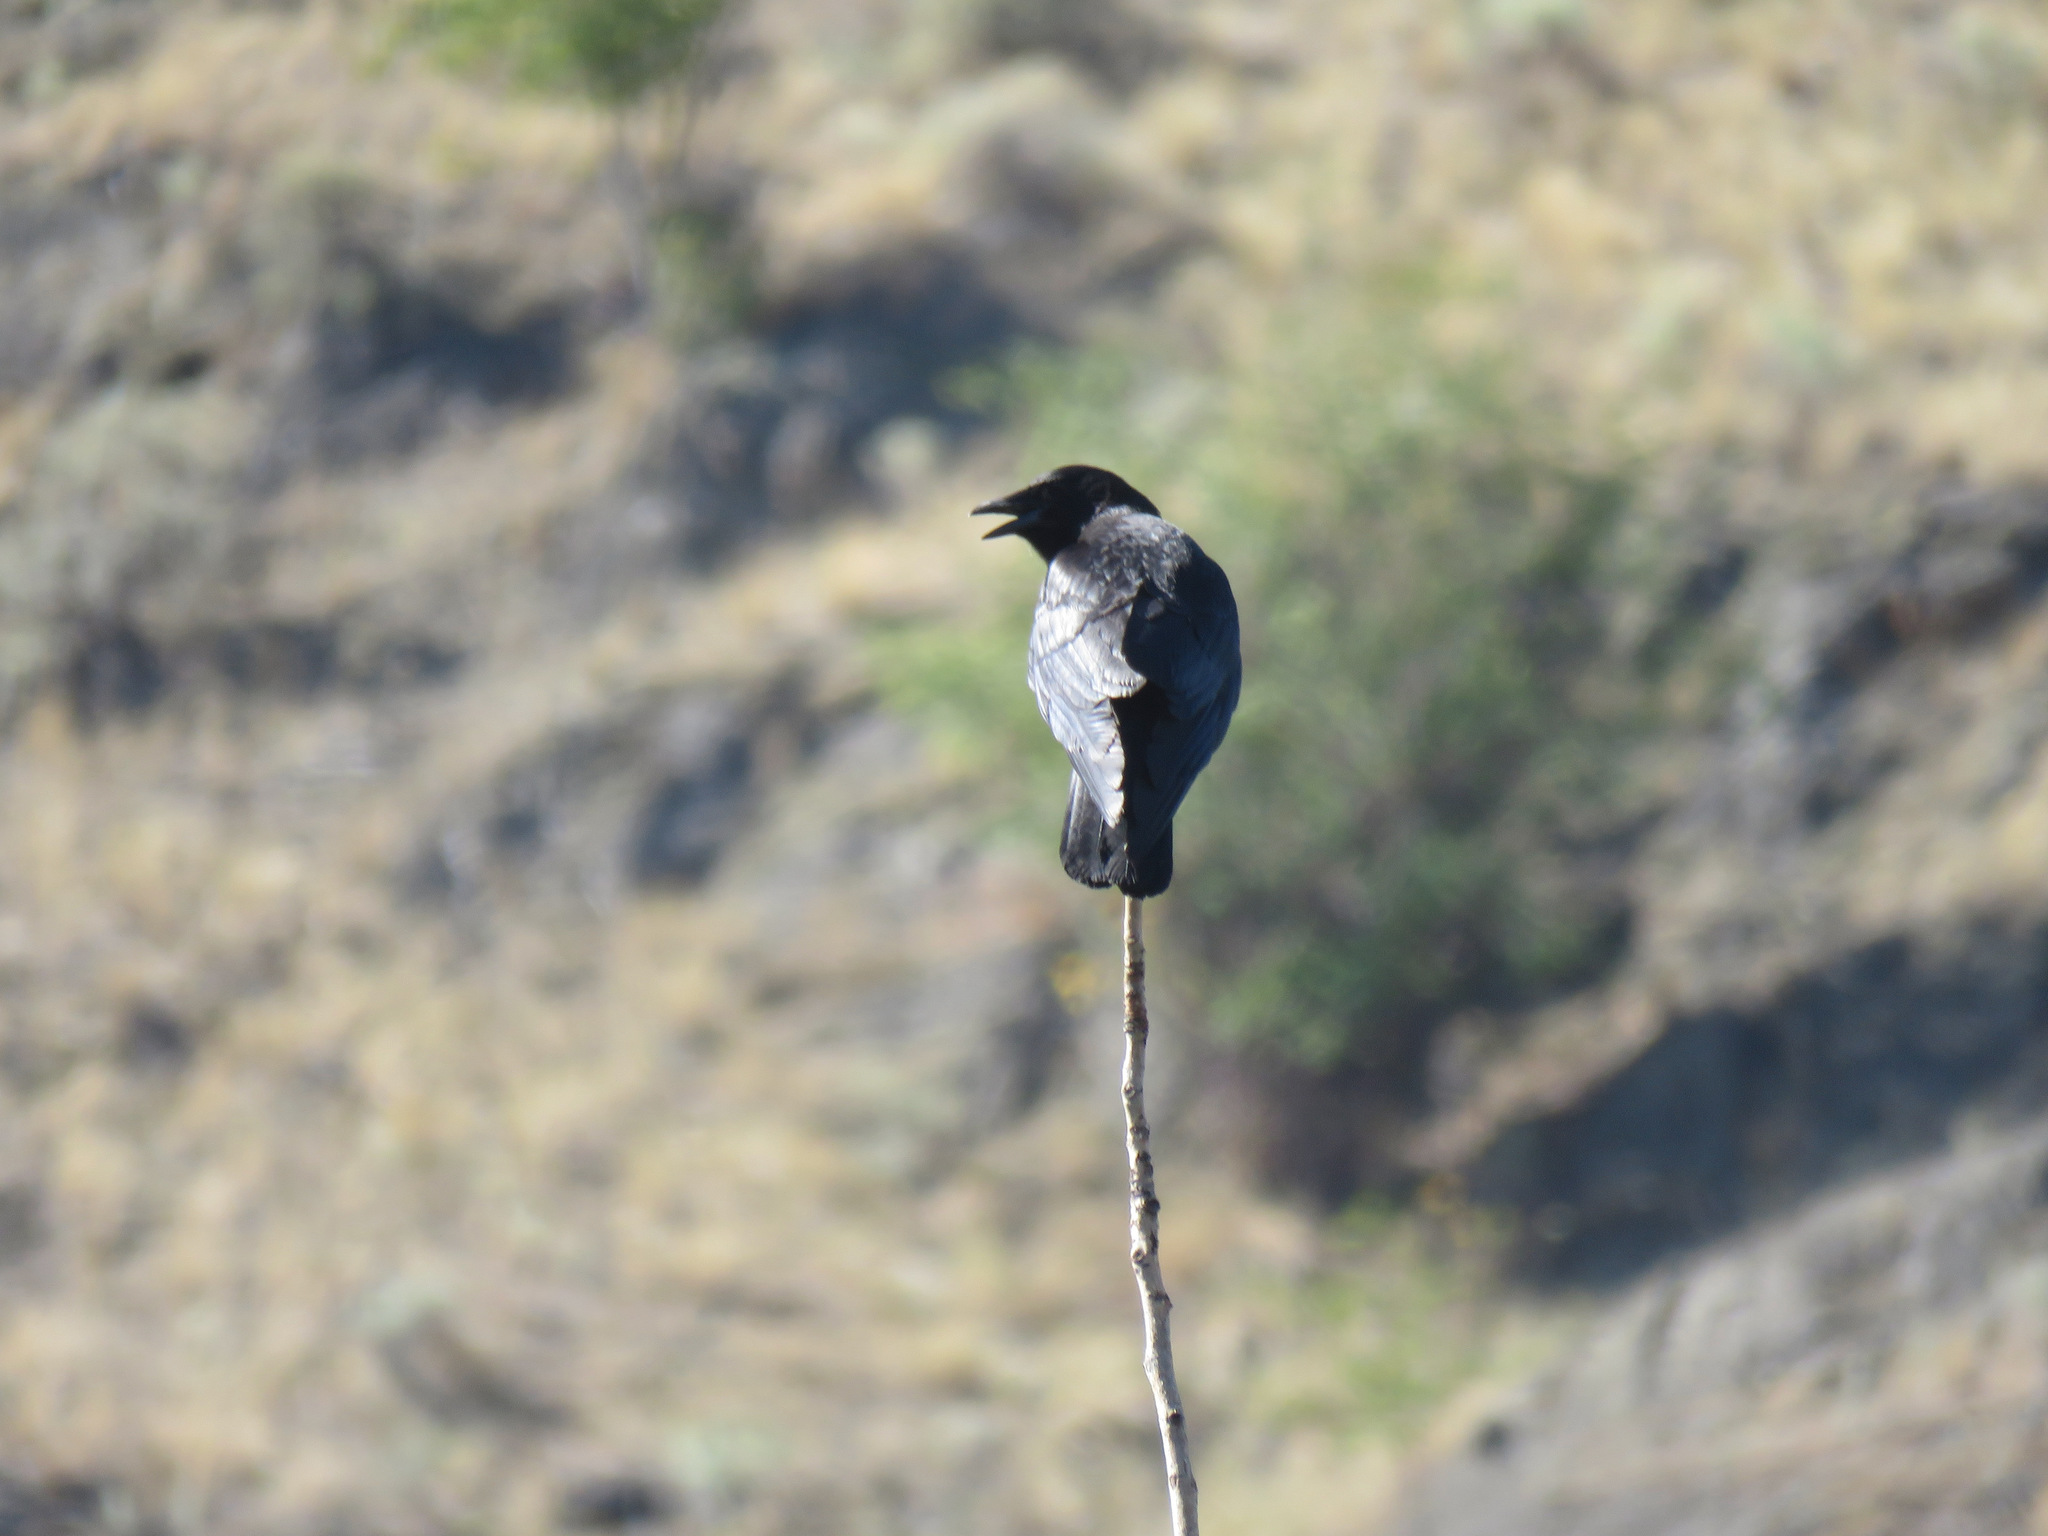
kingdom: Animalia
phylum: Chordata
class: Aves
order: Passeriformes
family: Corvidae
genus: Corvus
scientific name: Corvus brachyrhynchos
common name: American crow
